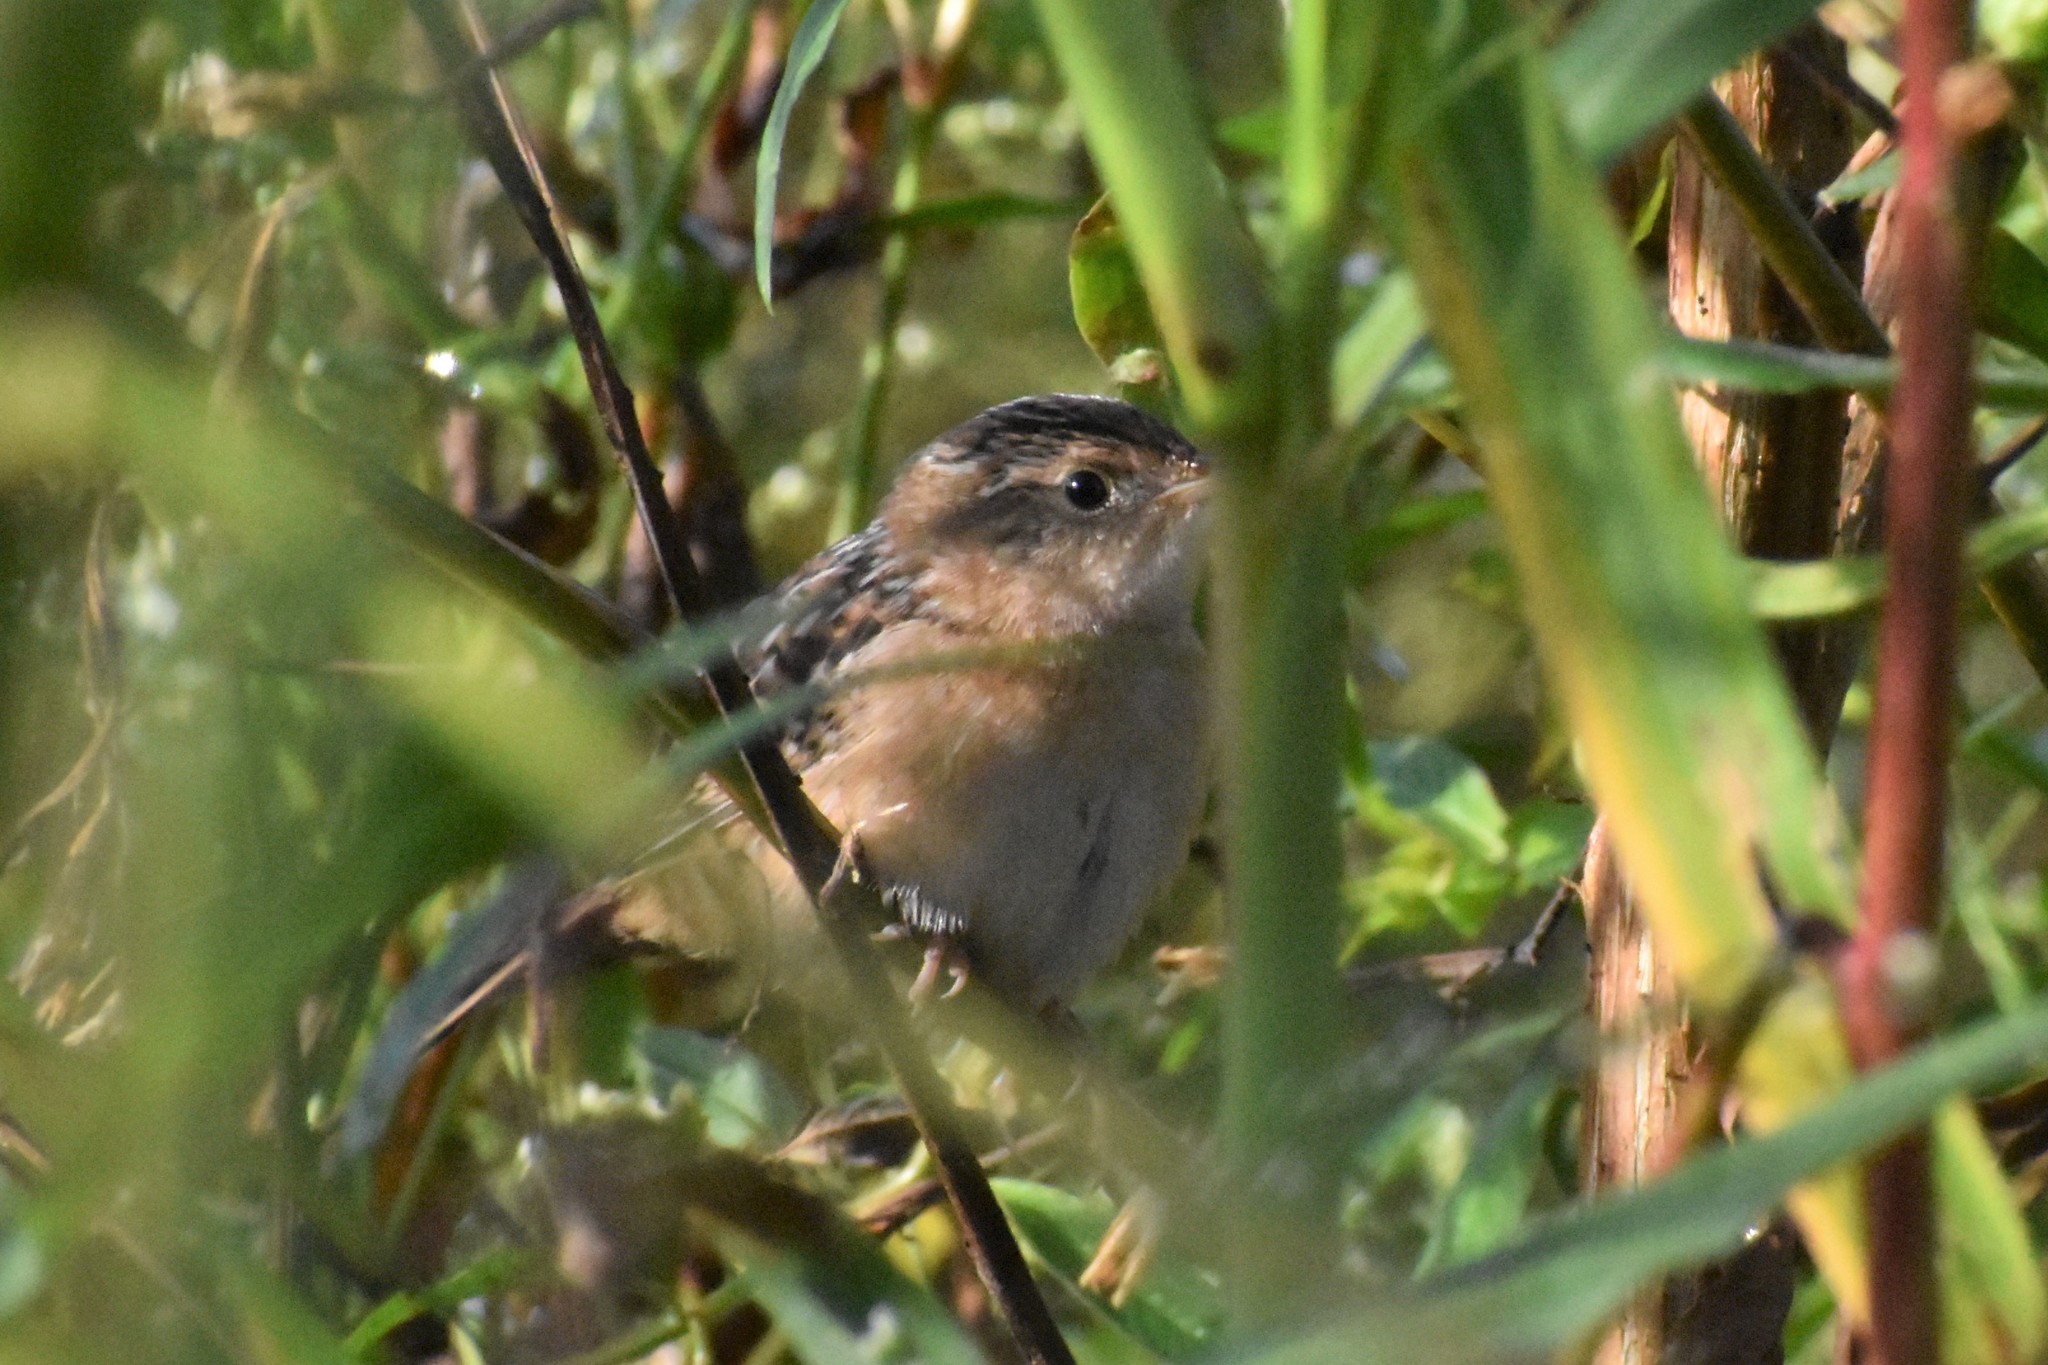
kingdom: Animalia
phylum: Chordata
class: Aves
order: Passeriformes
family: Troglodytidae
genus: Cistothorus
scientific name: Cistothorus platensis
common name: Sedge wren
